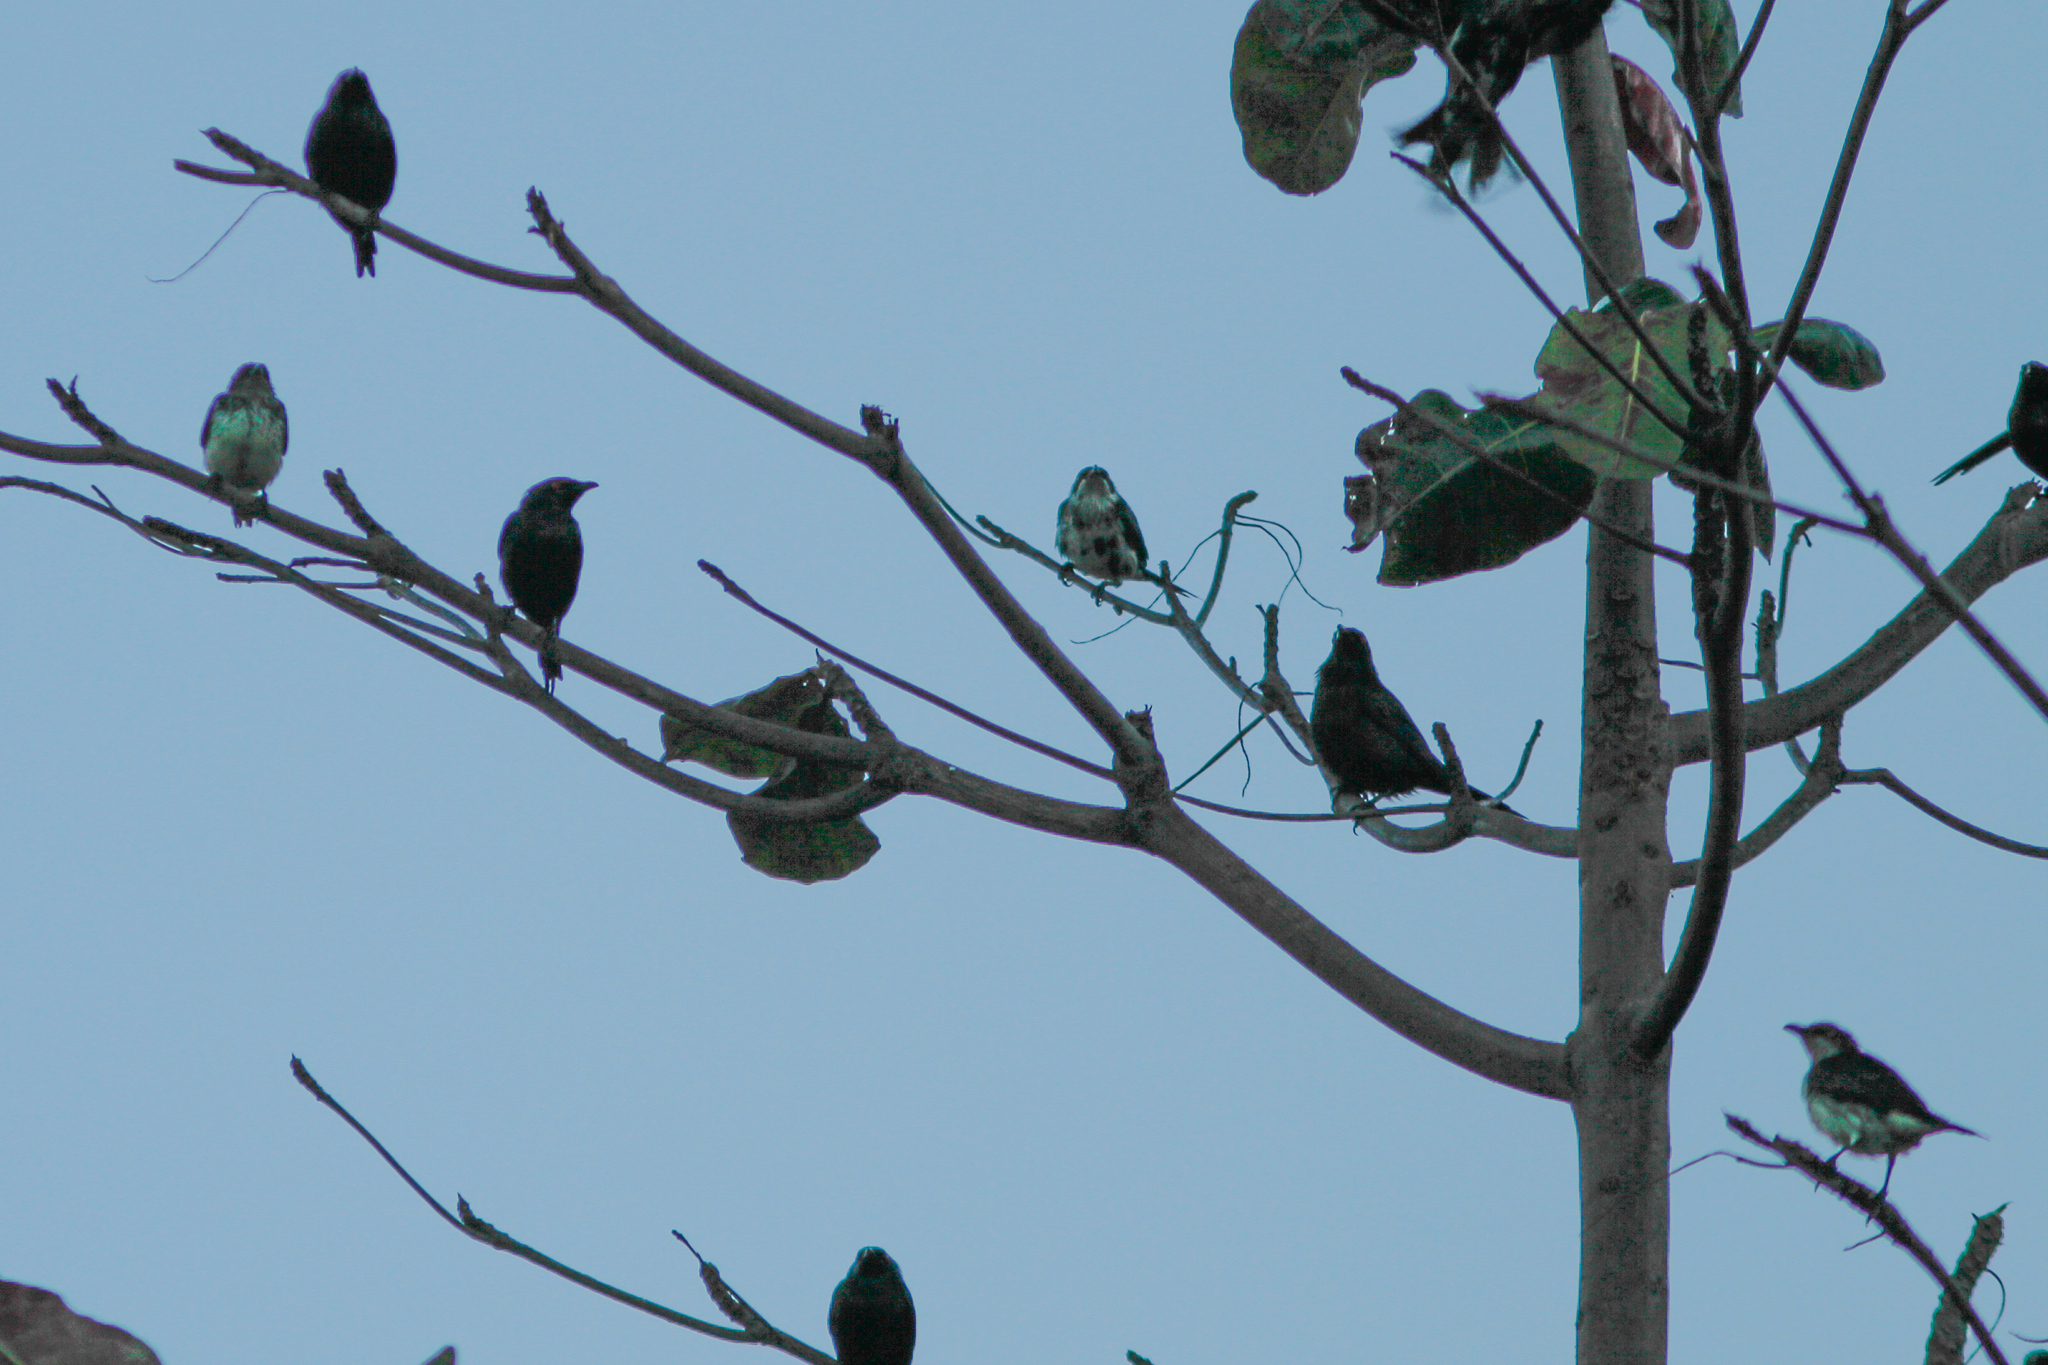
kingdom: Animalia
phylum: Chordata
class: Aves
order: Passeriformes
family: Sturnidae
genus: Aplonis
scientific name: Aplonis metallica
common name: Metallic starling
